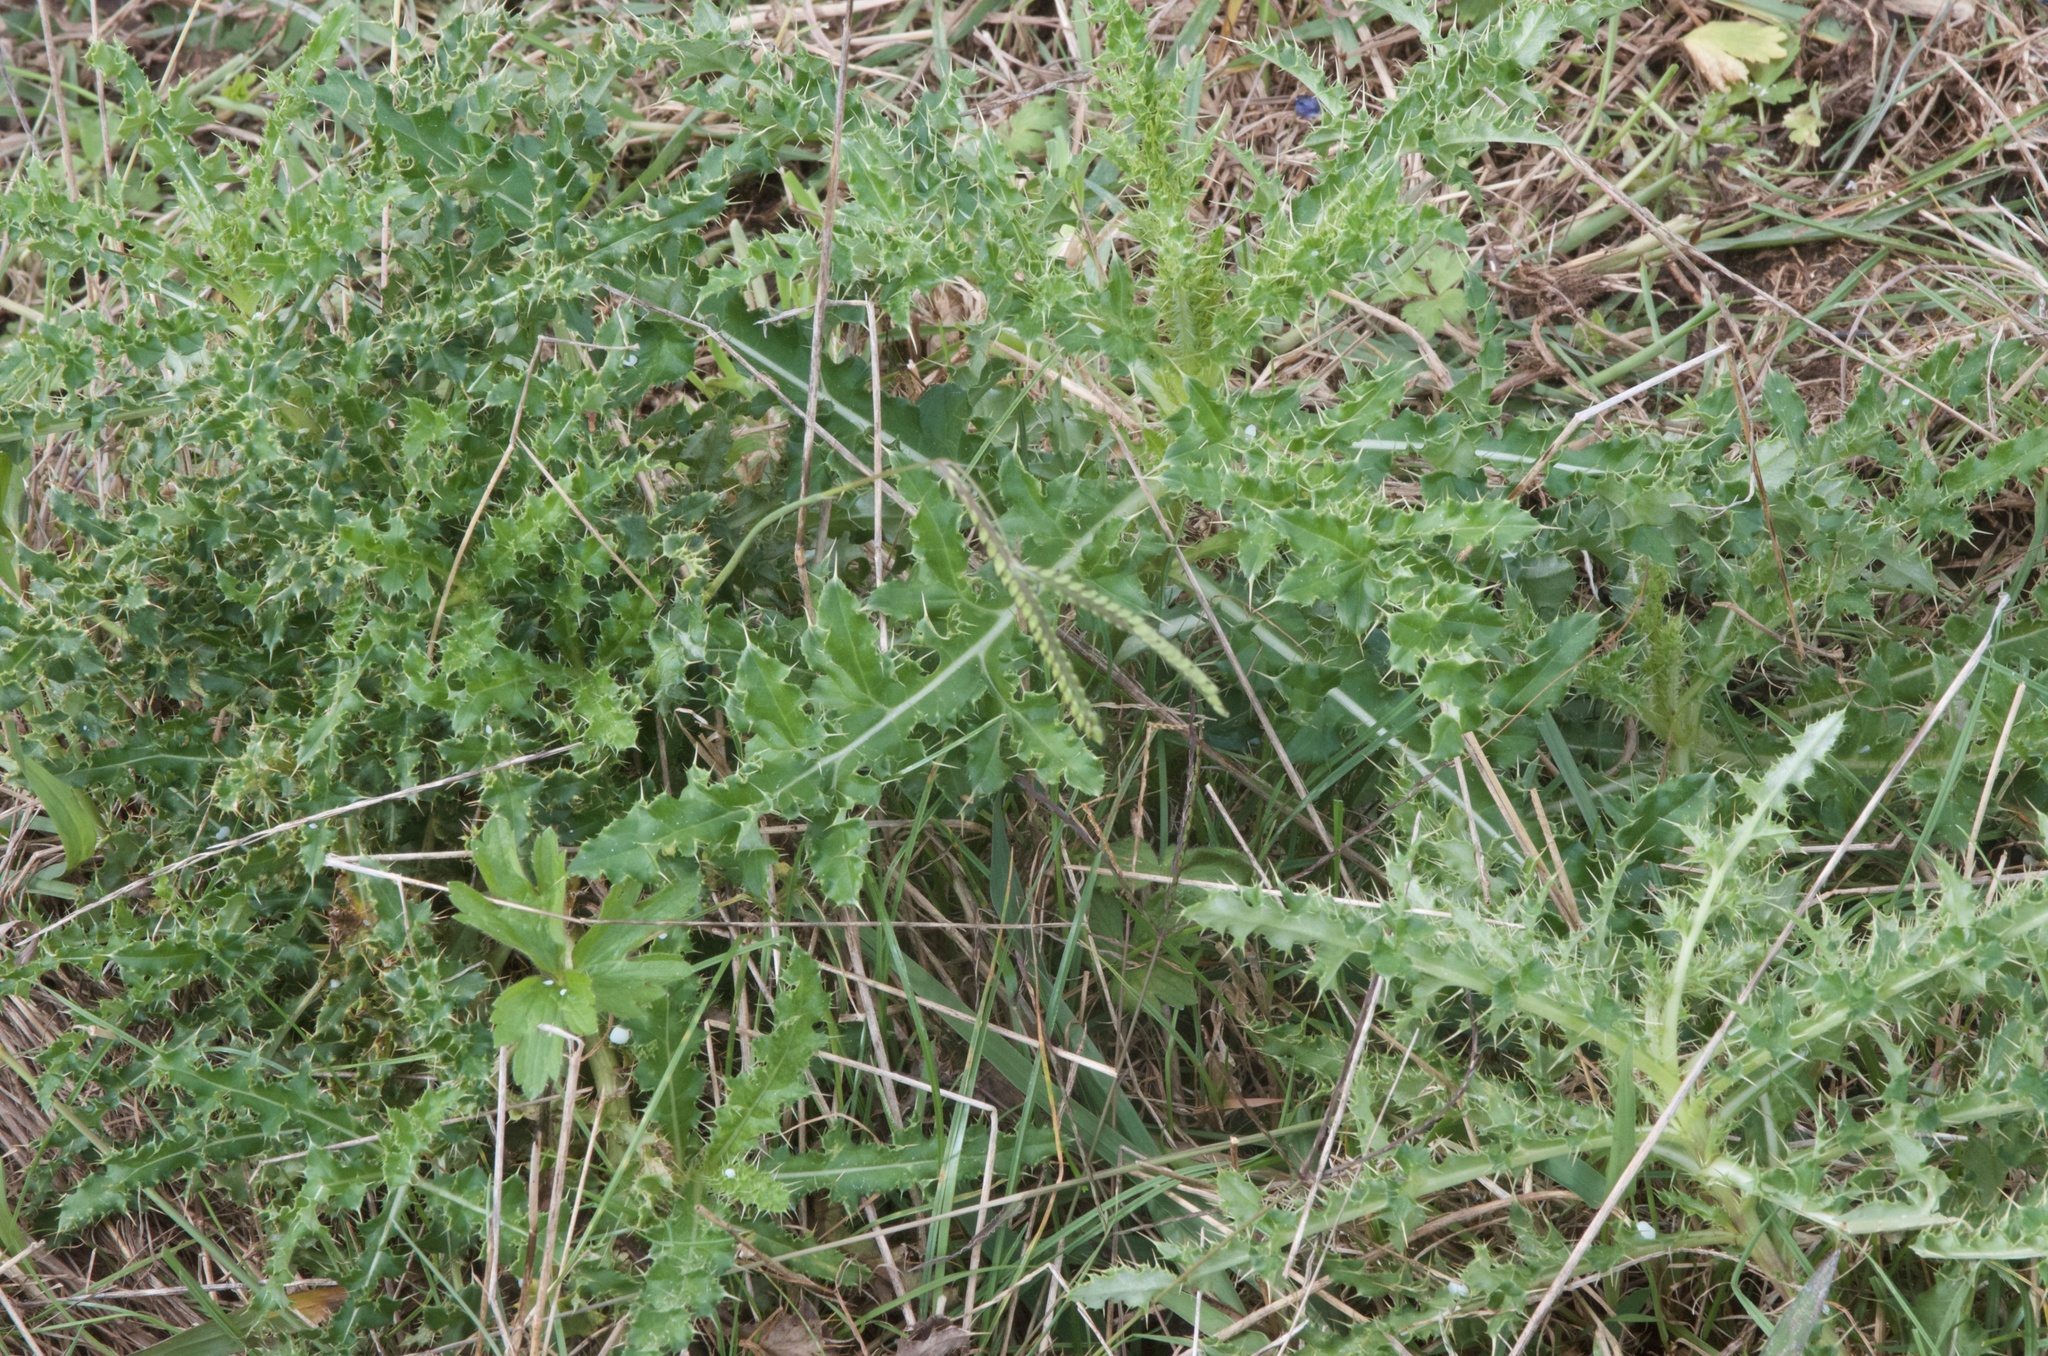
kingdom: Plantae
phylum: Tracheophyta
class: Magnoliopsida
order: Asterales
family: Asteraceae
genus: Cirsium
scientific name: Cirsium arvense
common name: Creeping thistle
